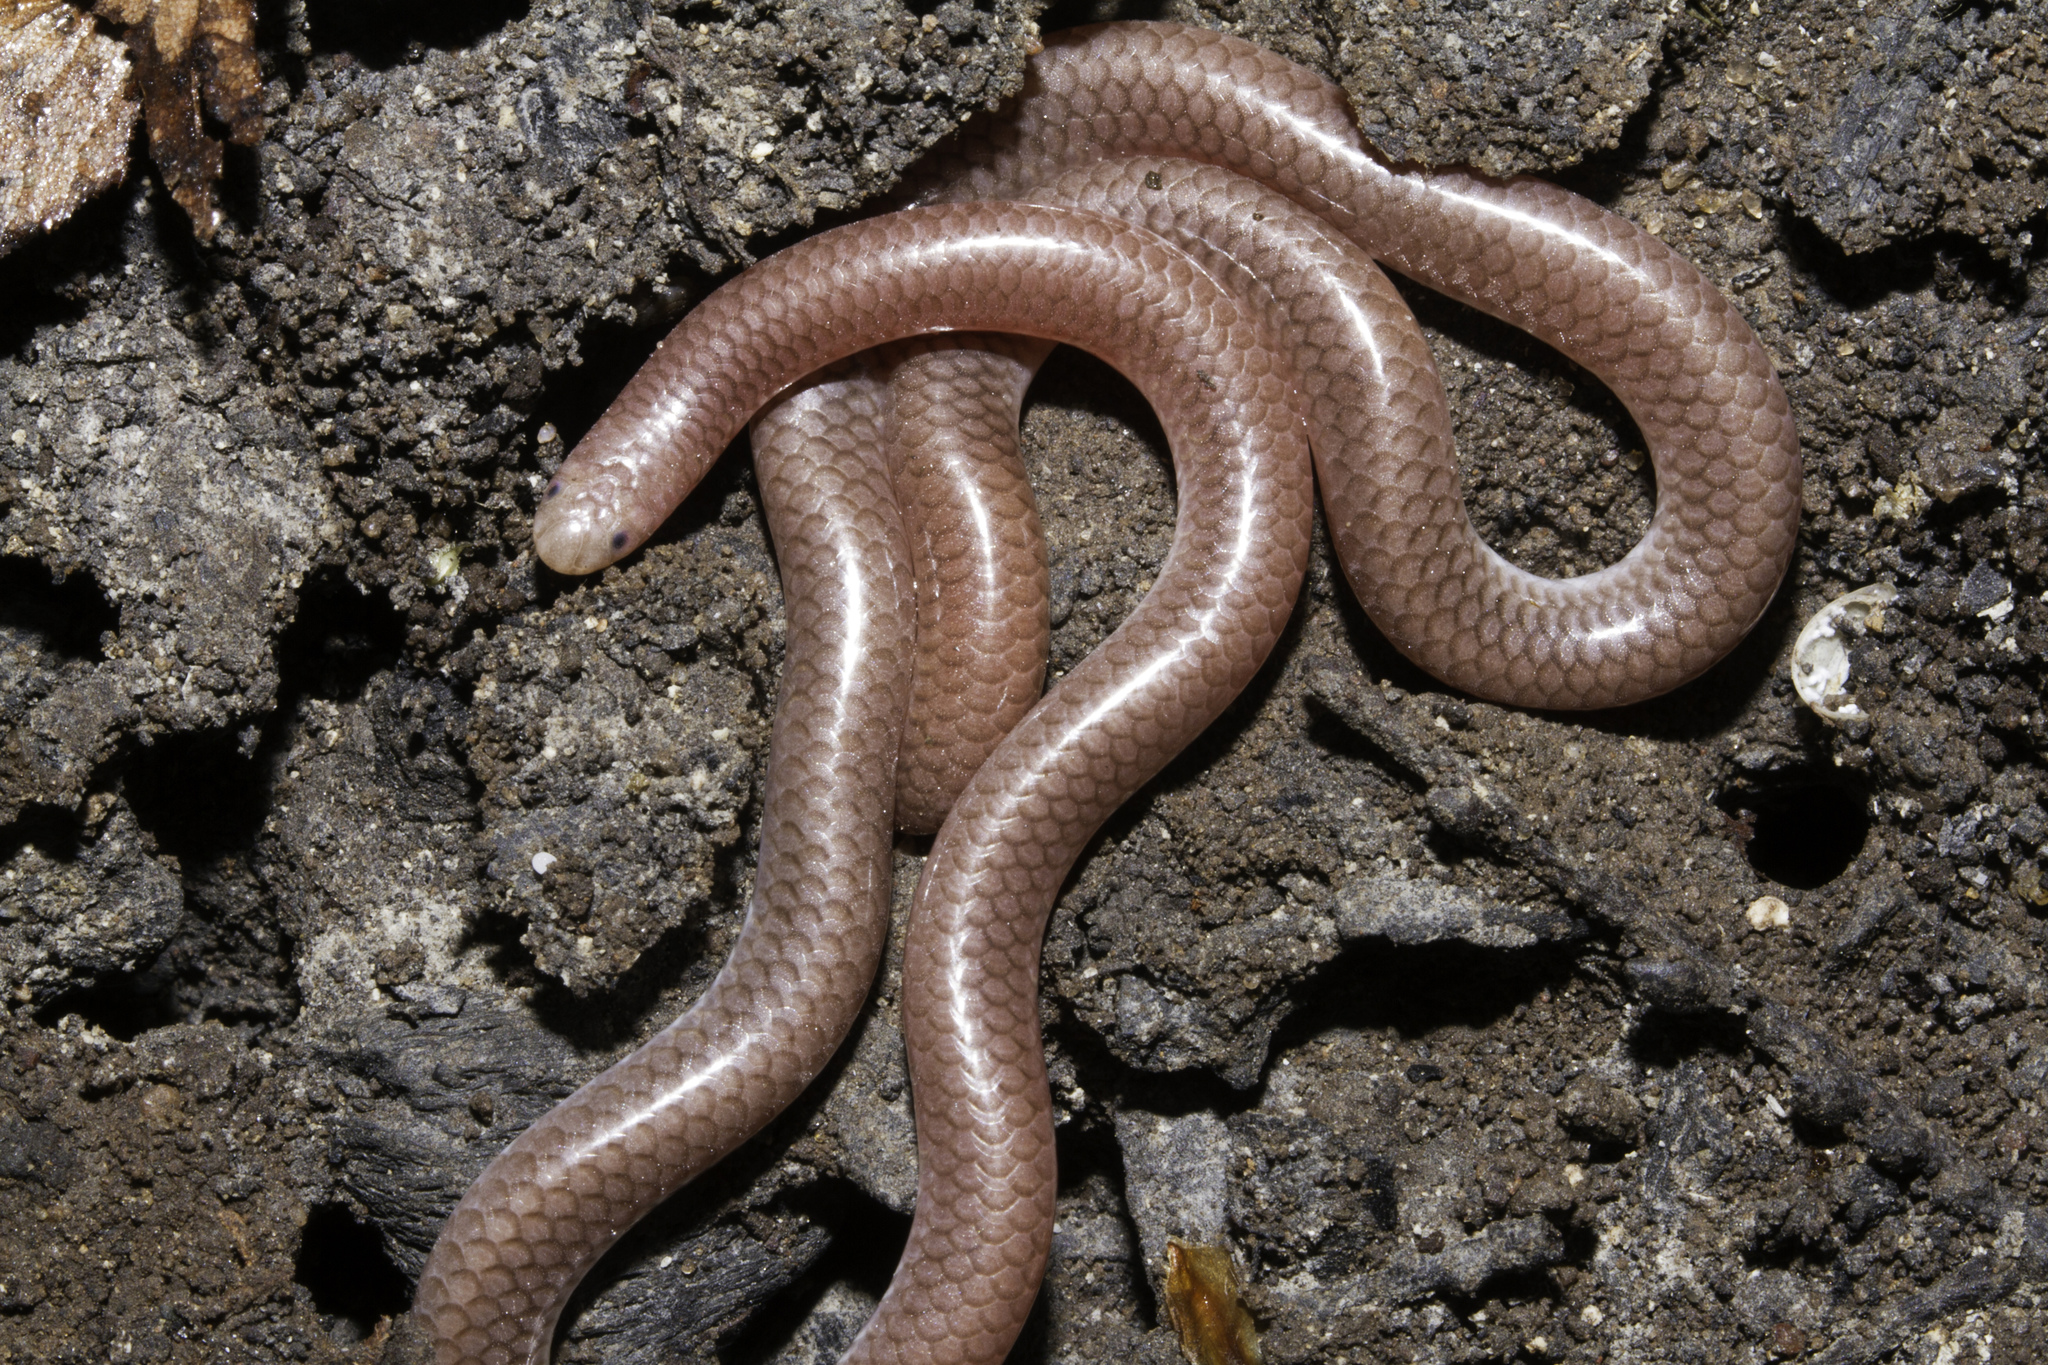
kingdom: Animalia
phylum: Chordata
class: Squamata
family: Leptotyphlopidae
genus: Rena
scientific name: Rena dulcis
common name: Texas blind snake
